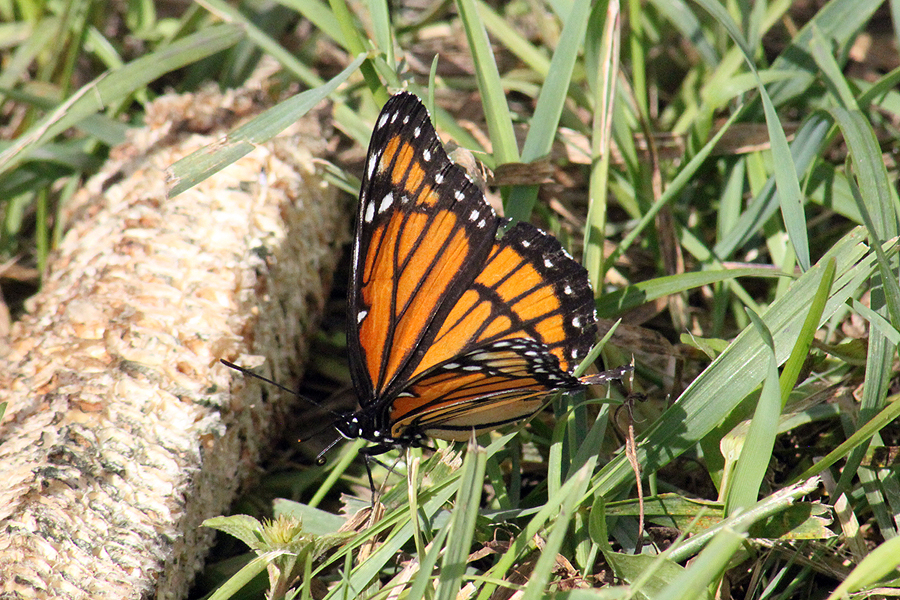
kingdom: Animalia
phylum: Arthropoda
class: Insecta
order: Lepidoptera
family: Nymphalidae
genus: Limenitis
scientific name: Limenitis archippus
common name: Viceroy
